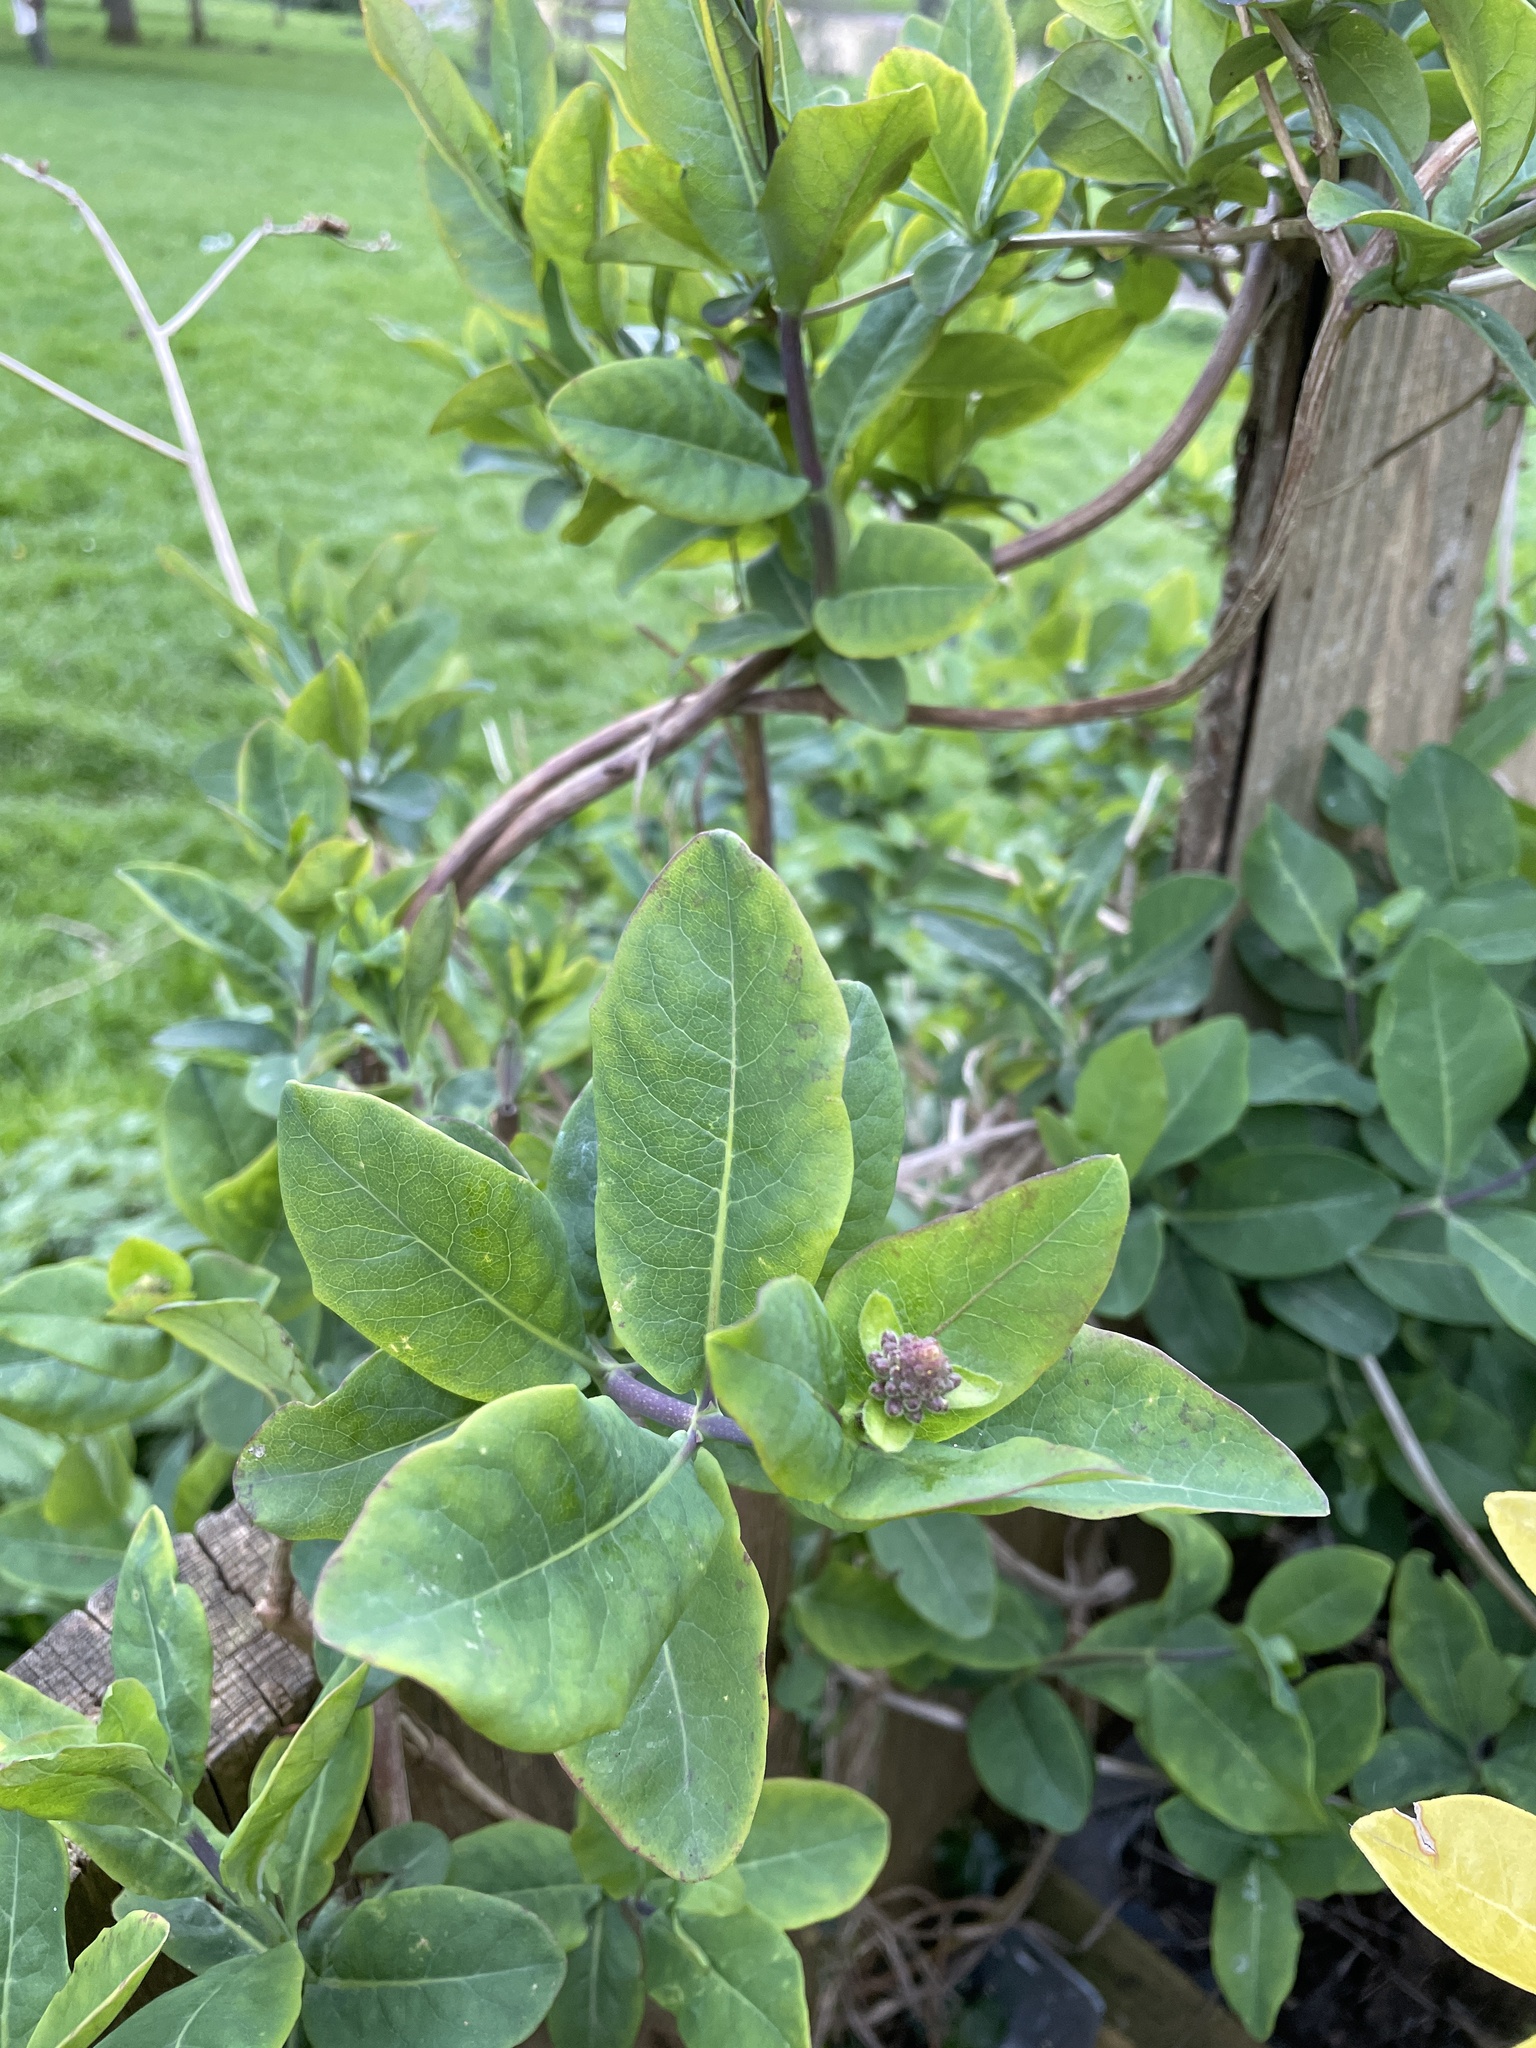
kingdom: Plantae
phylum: Tracheophyta
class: Magnoliopsida
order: Dipsacales
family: Caprifoliaceae
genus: Lonicera
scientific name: Lonicera periclymenum
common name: European honeysuckle
